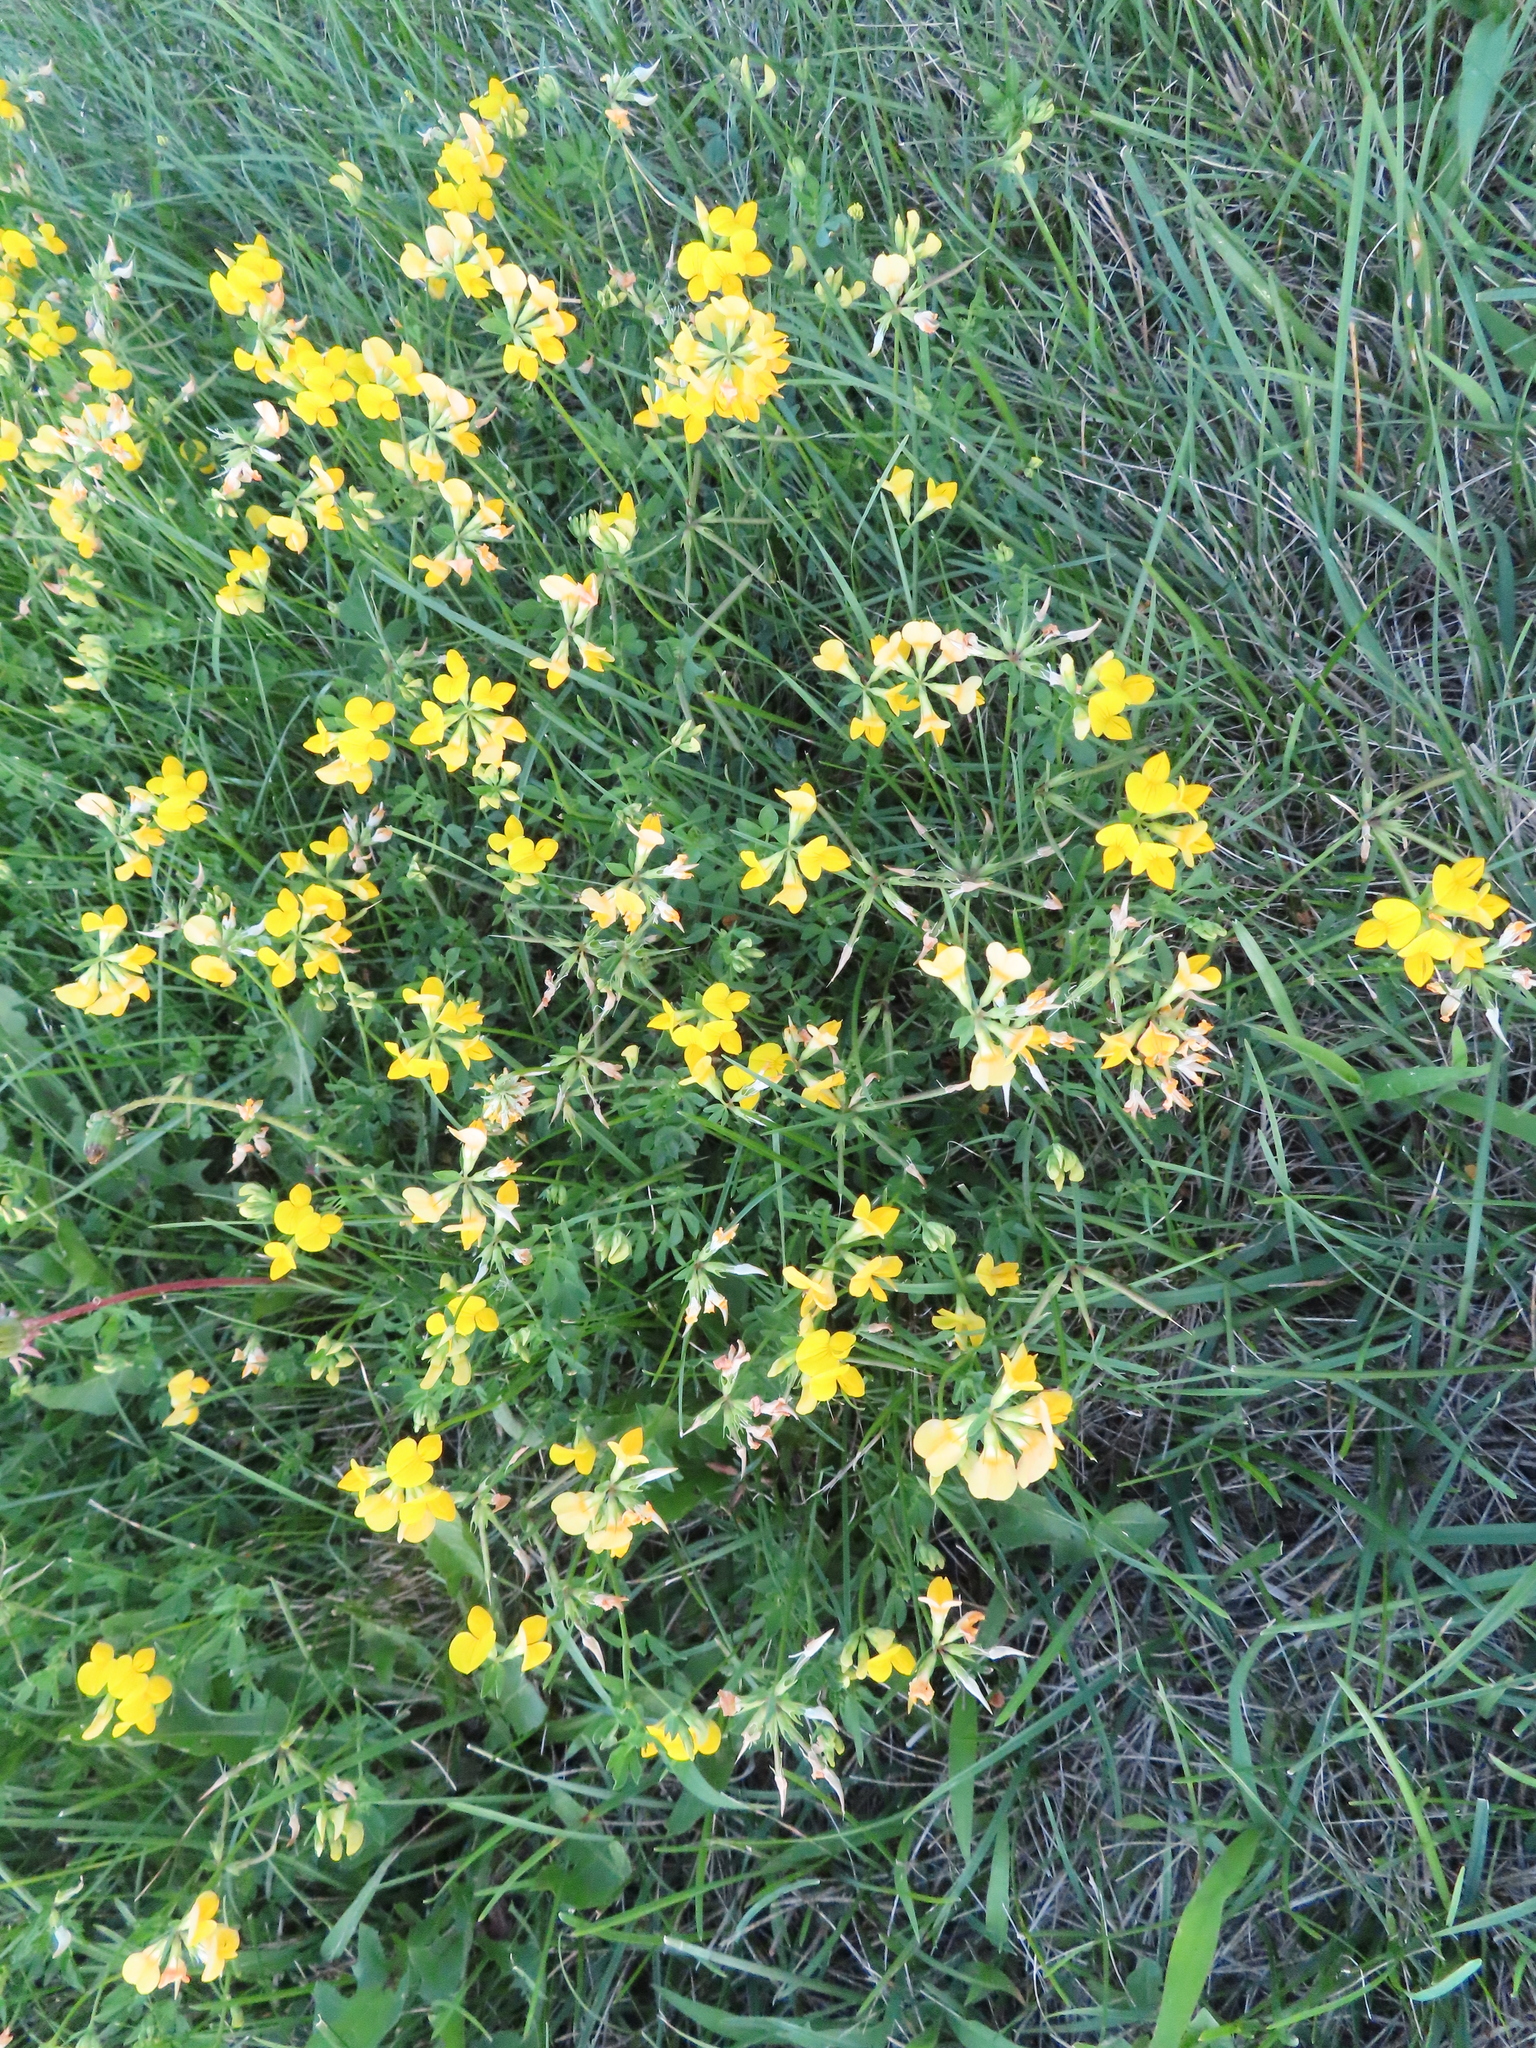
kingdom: Plantae
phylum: Tracheophyta
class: Magnoliopsida
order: Fabales
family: Fabaceae
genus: Lotus
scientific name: Lotus corniculatus
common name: Common bird's-foot-trefoil
